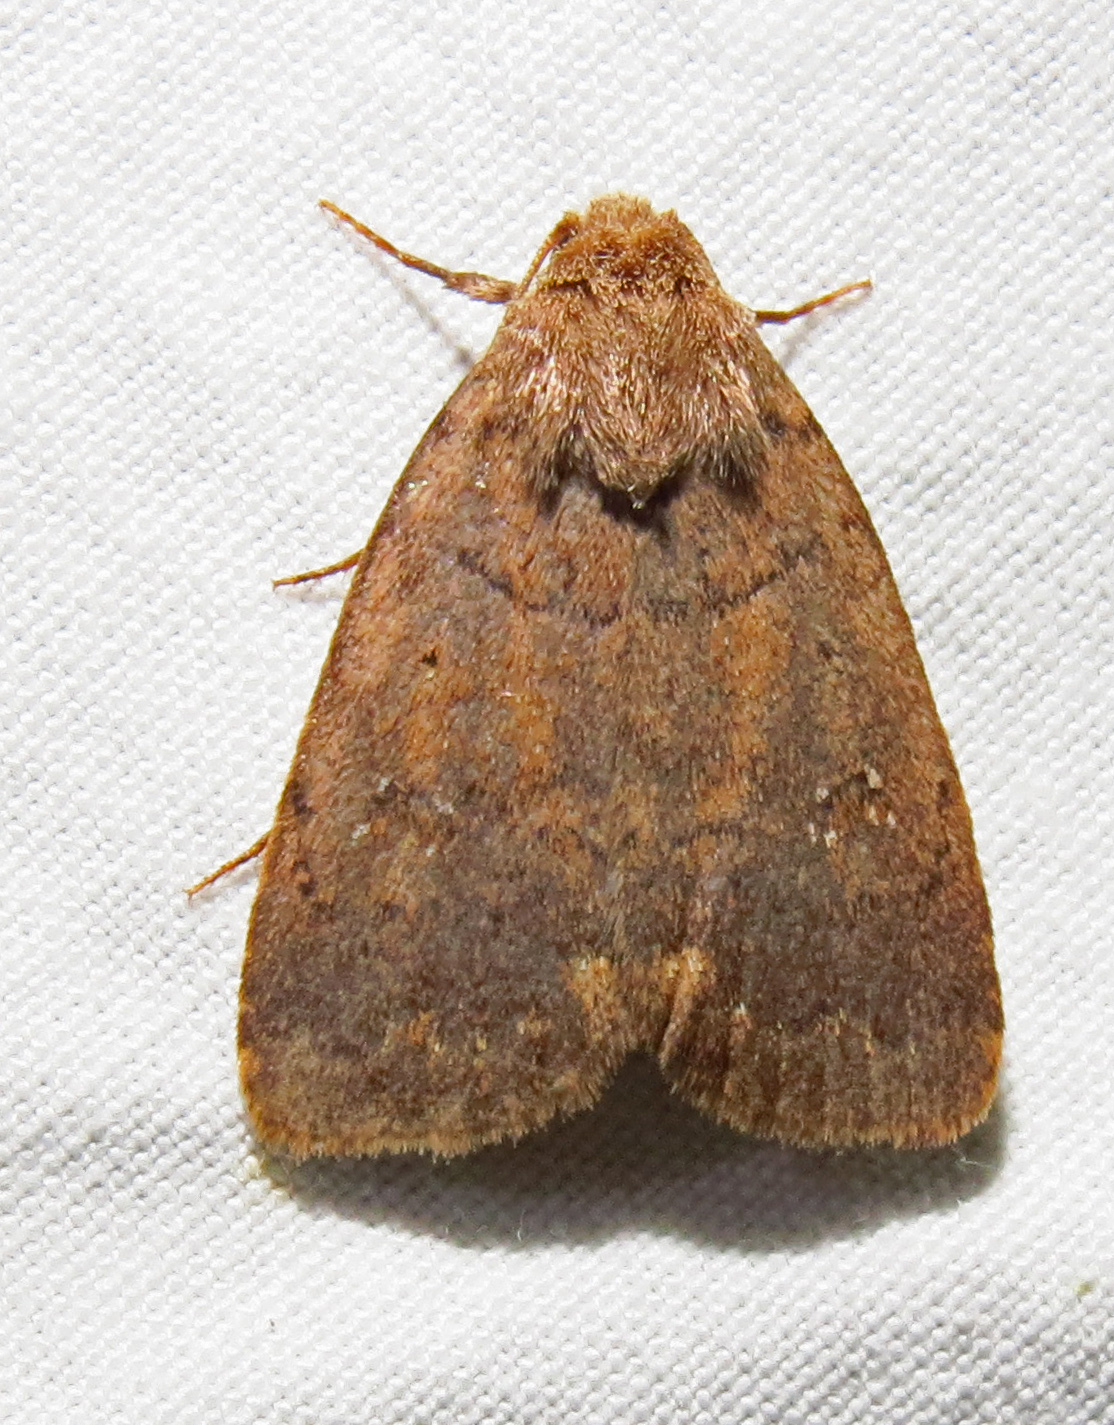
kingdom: Animalia
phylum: Arthropoda
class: Insecta
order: Lepidoptera
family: Noctuidae
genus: Athetis
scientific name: Athetis tarda
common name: Slowpoke moth
